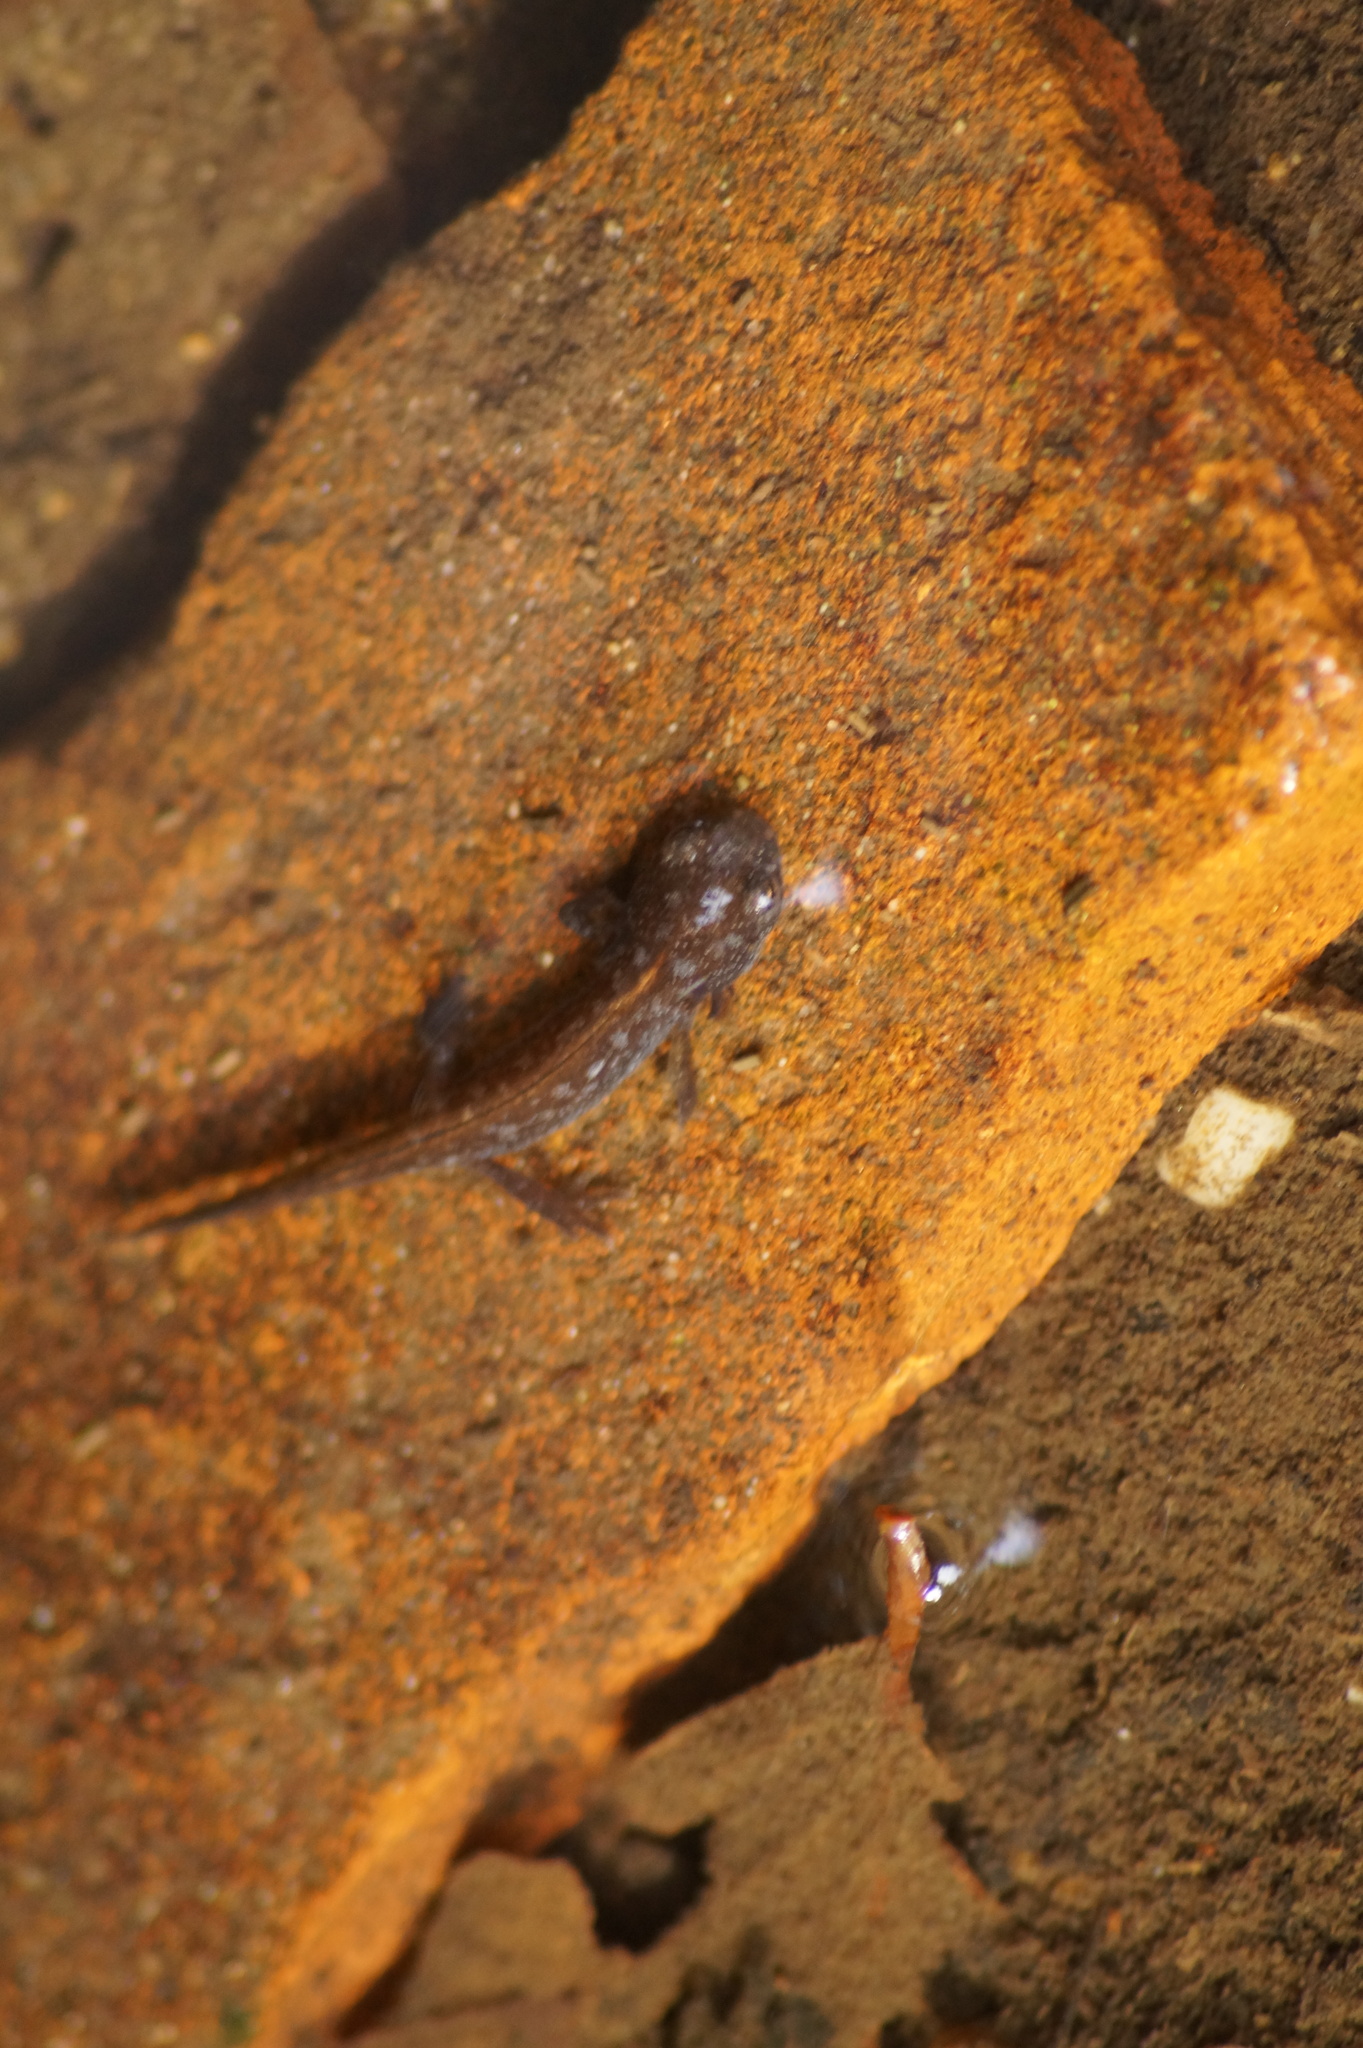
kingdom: Animalia
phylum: Chordata
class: Amphibia
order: Caudata
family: Salamandridae
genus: Ichthyosaura
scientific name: Ichthyosaura alpestris
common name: Alpine newt
